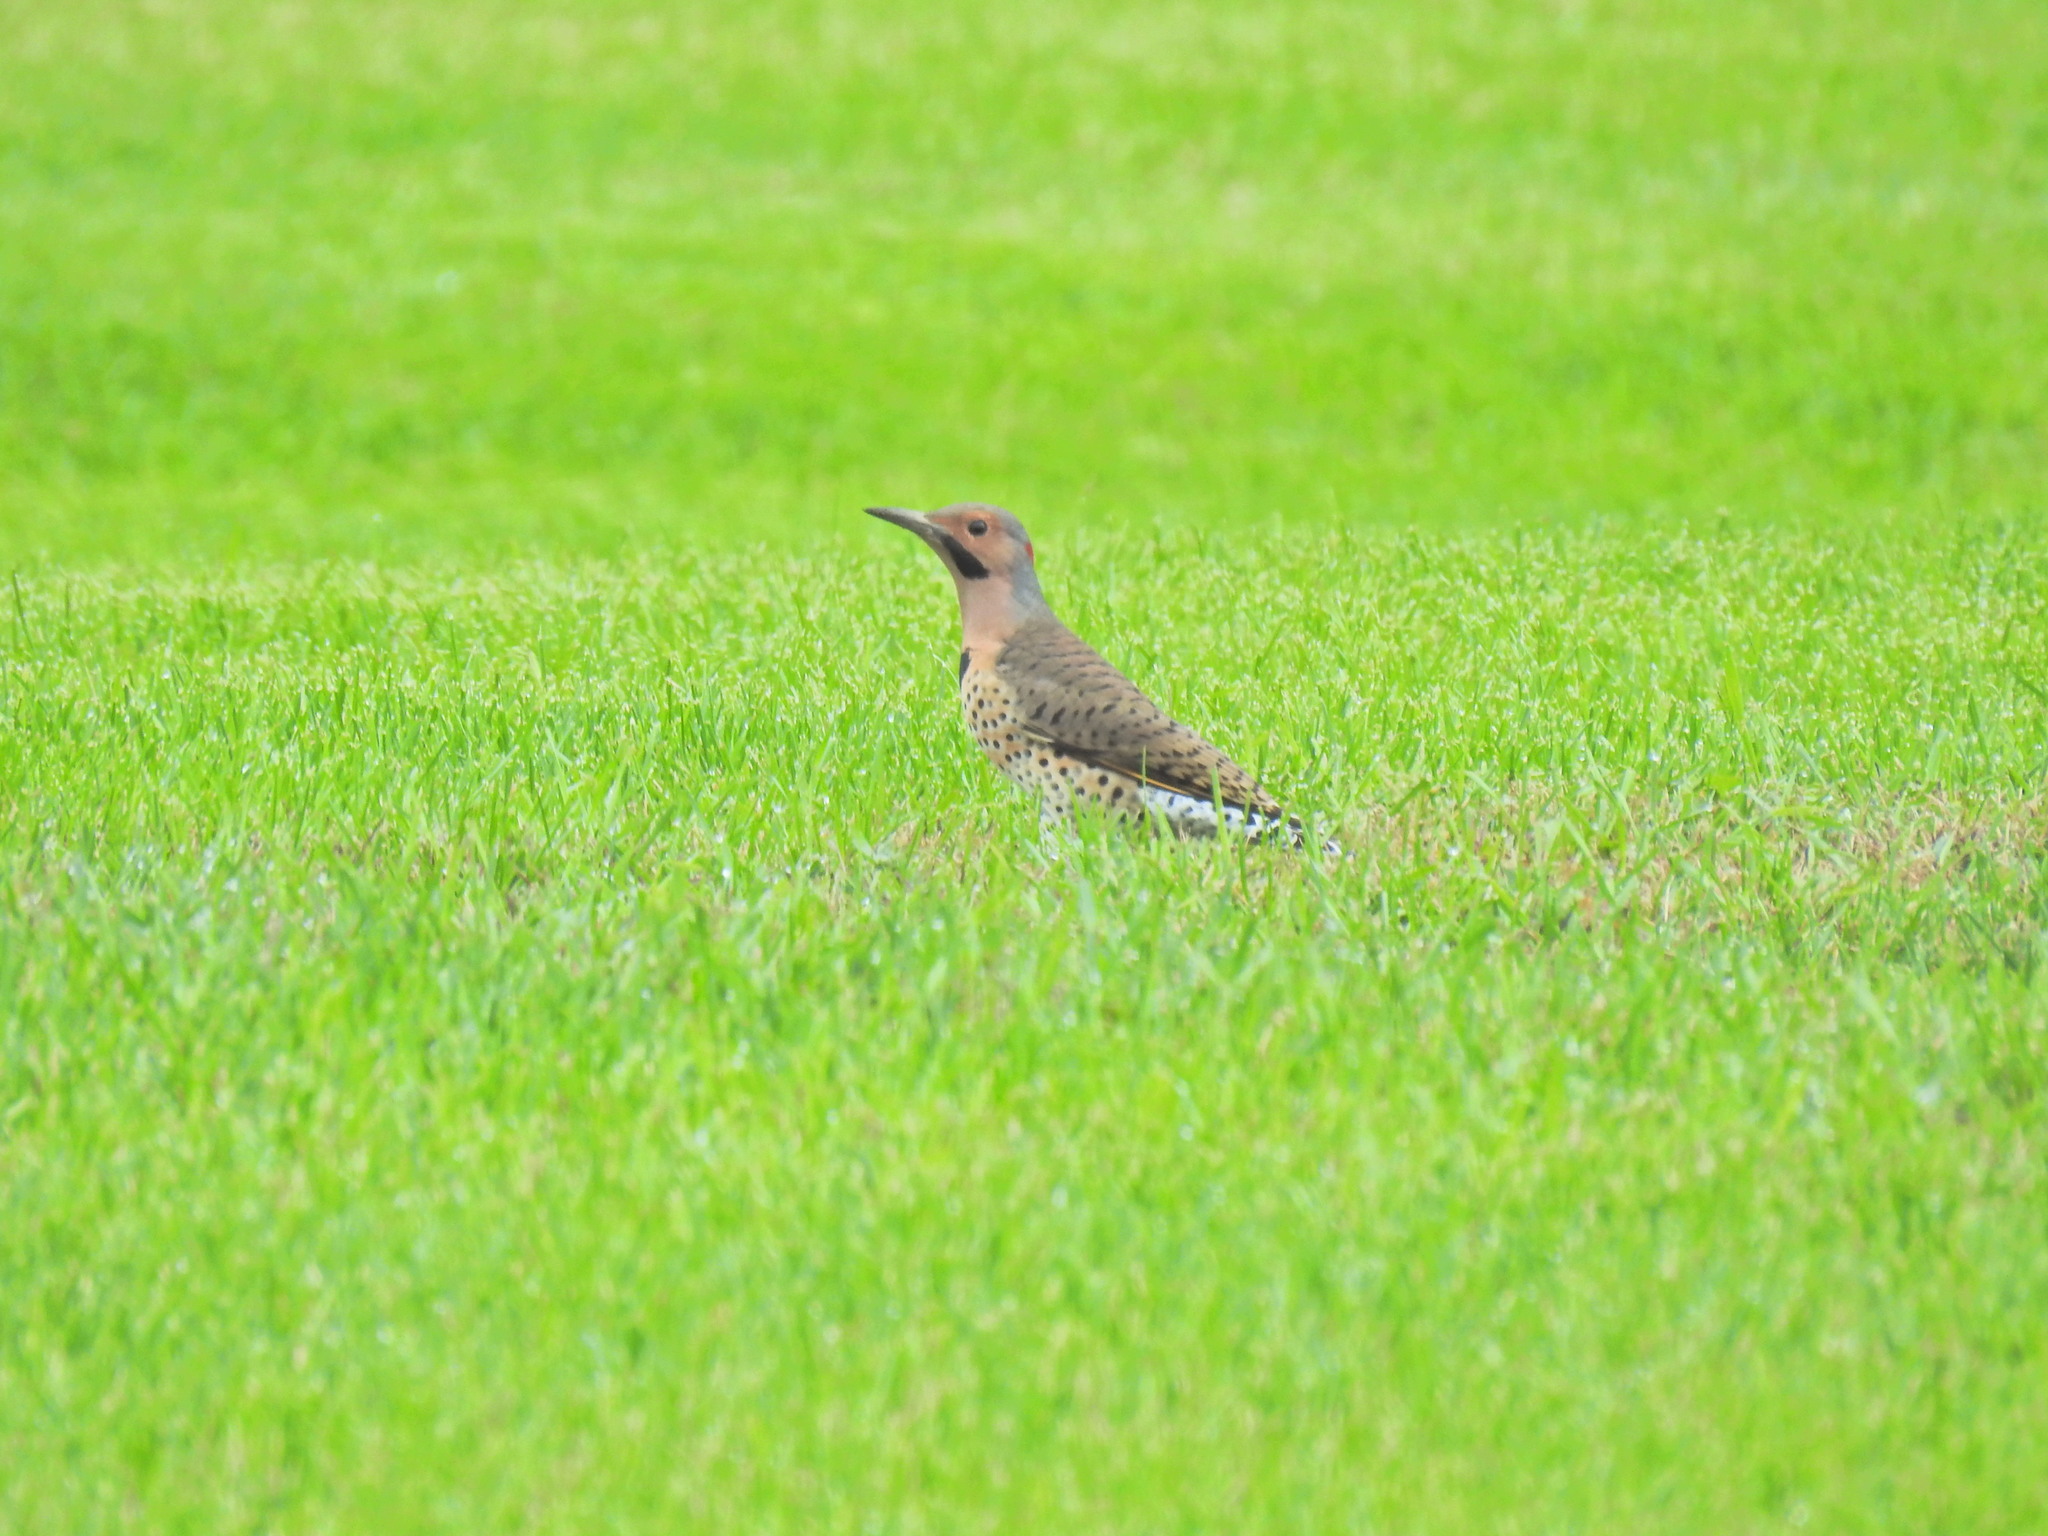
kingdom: Animalia
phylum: Chordata
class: Aves
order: Piciformes
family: Picidae
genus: Colaptes
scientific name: Colaptes auratus
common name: Northern flicker
